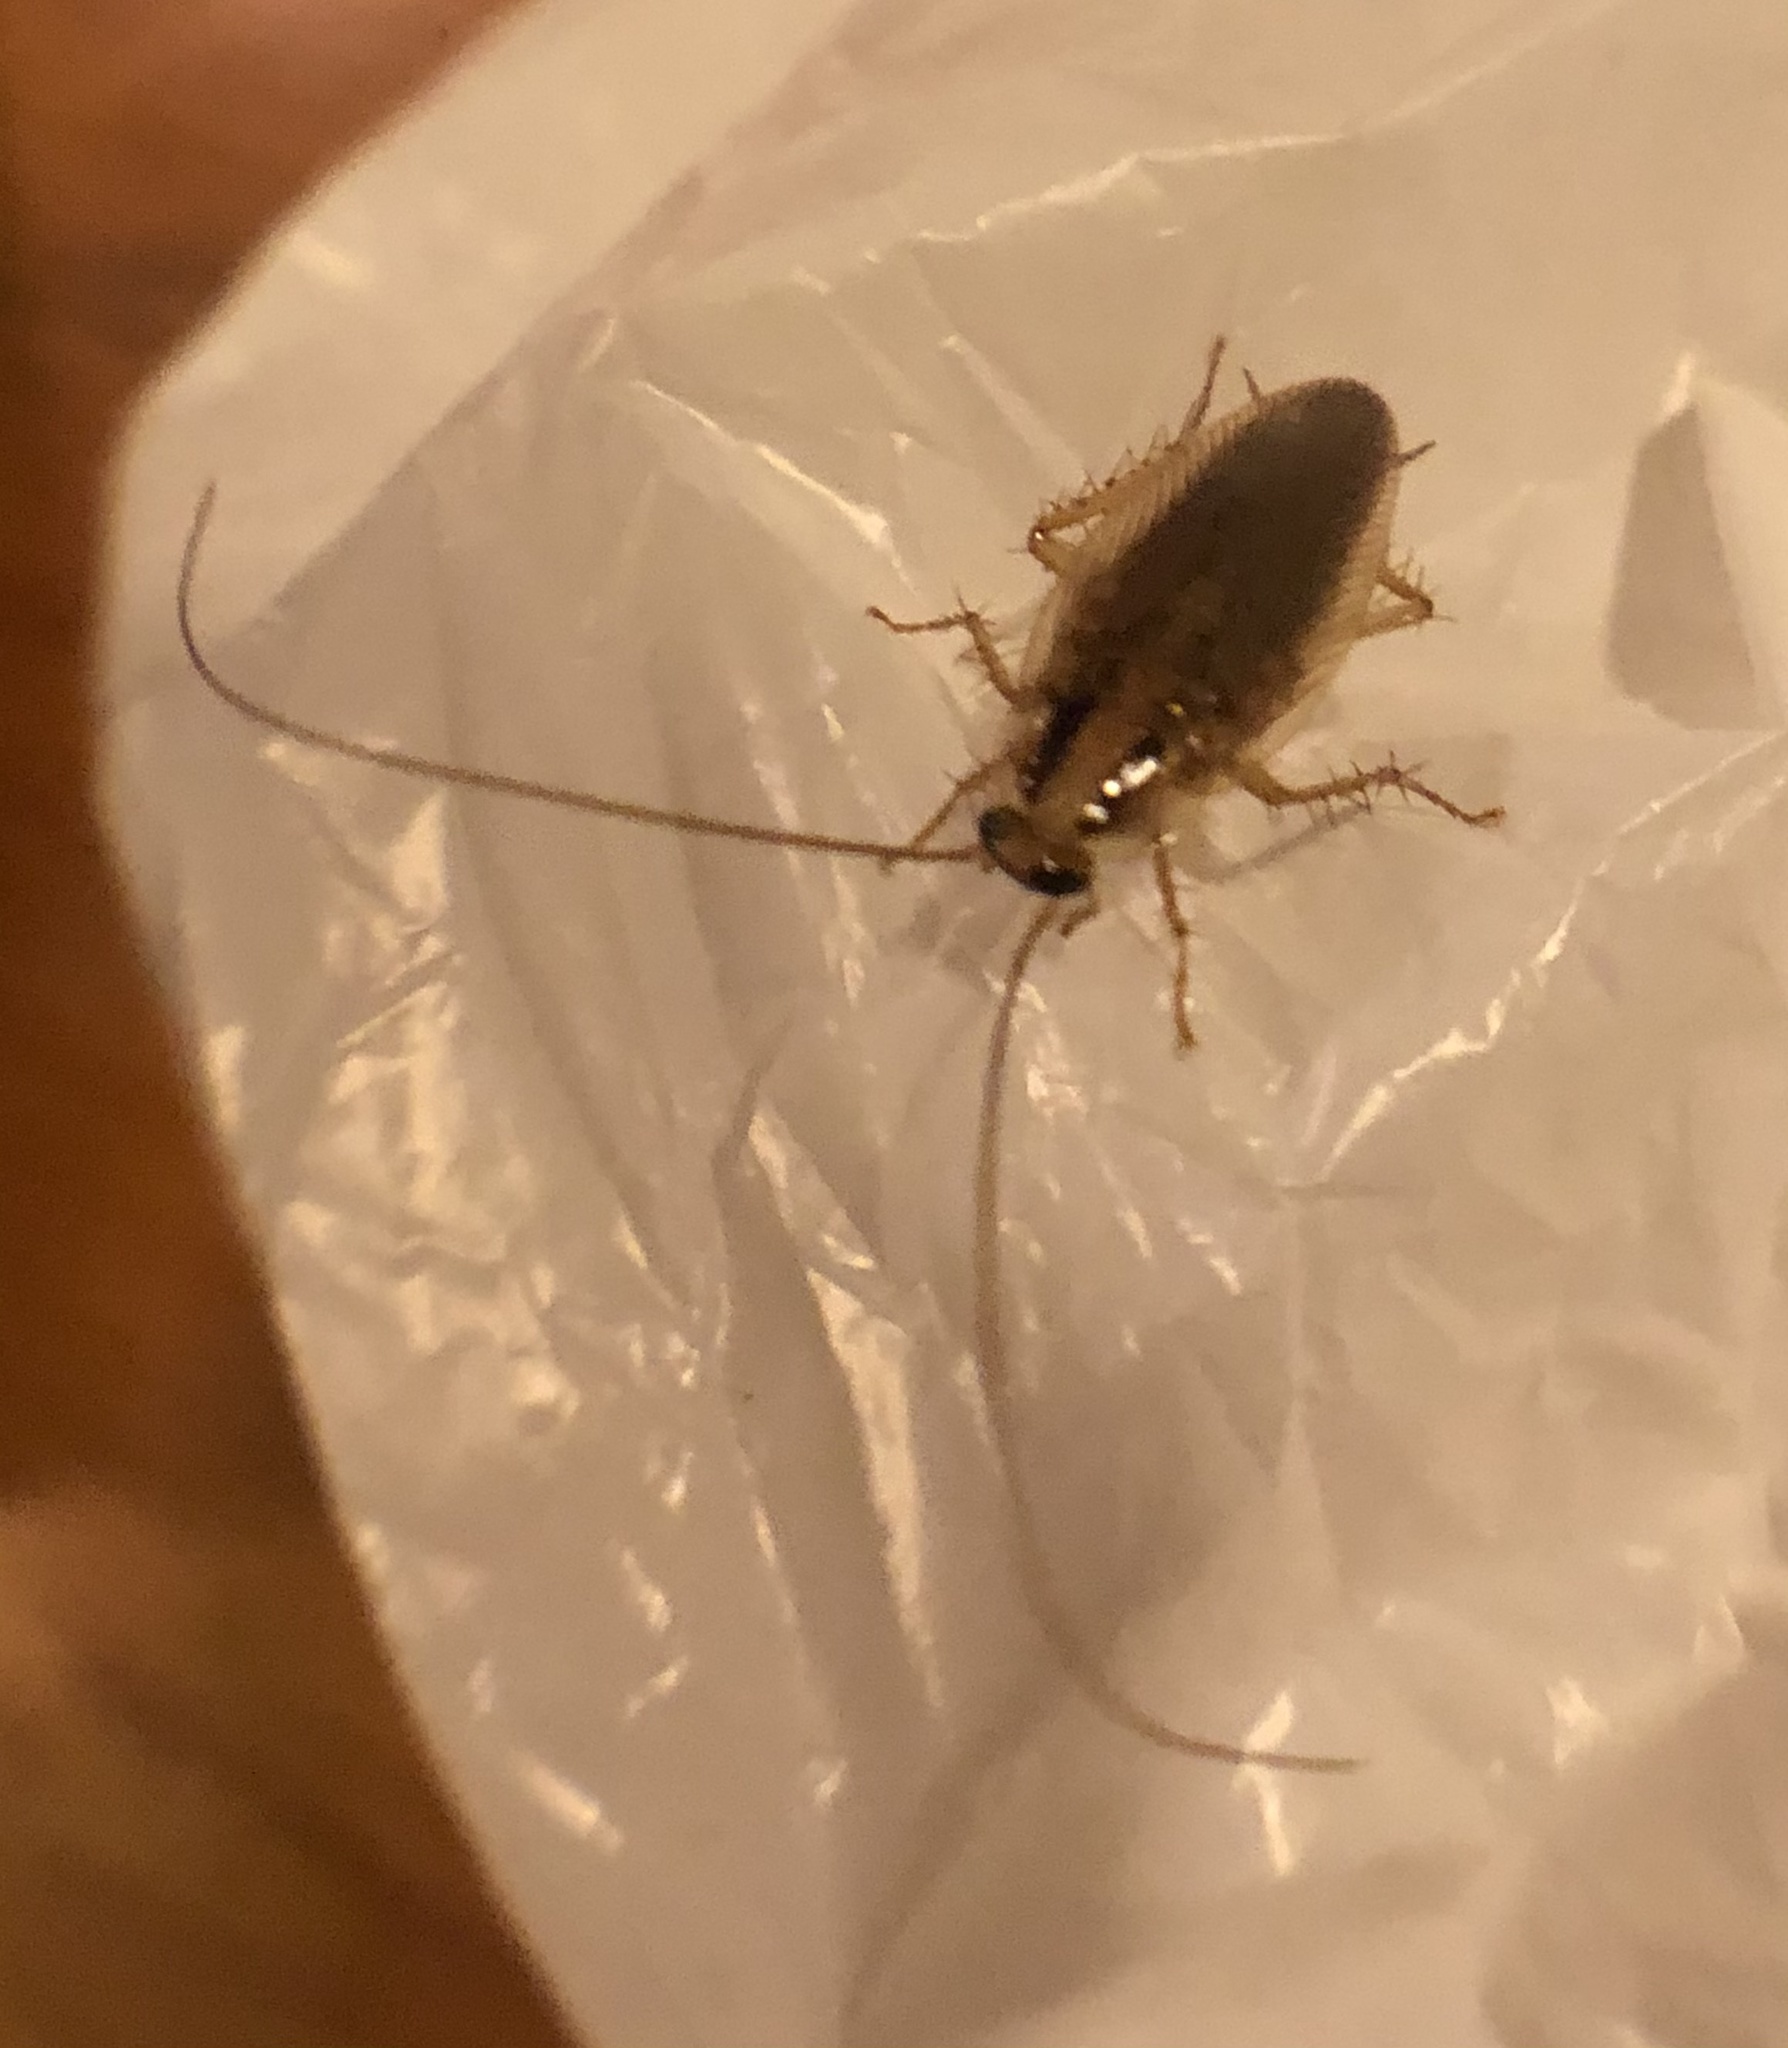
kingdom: Animalia
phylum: Arthropoda
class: Insecta
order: Blattodea
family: Ectobiidae
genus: Blattella
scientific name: Blattella asahinai
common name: Asian cockroach
